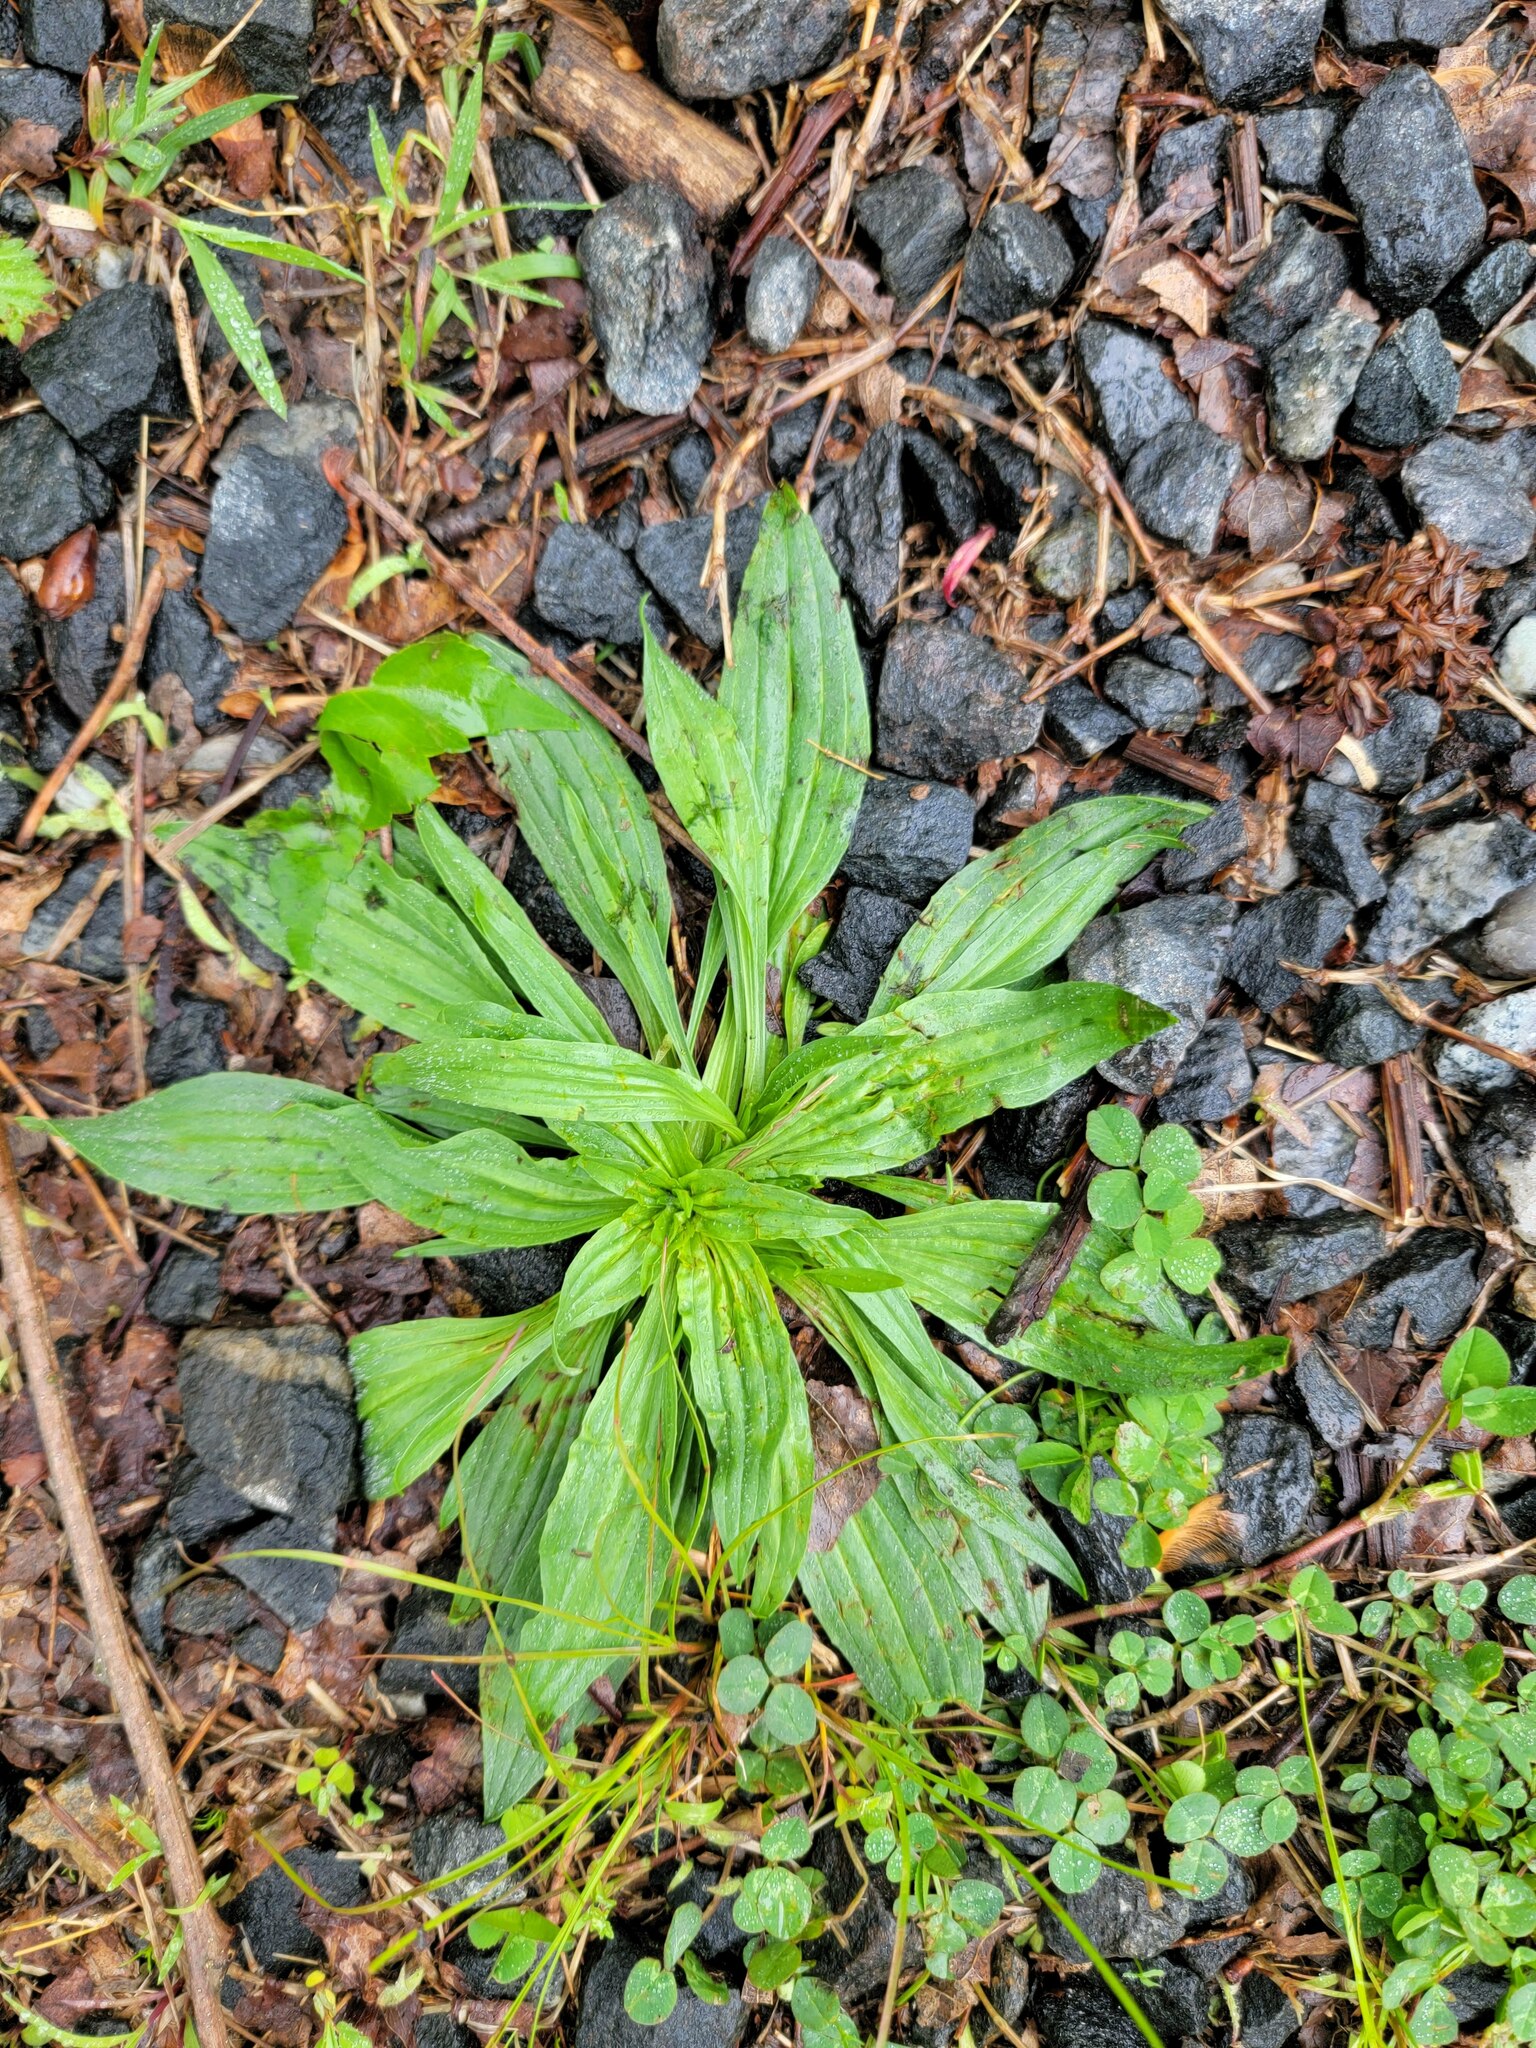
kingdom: Plantae
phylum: Tracheophyta
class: Magnoliopsida
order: Lamiales
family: Plantaginaceae
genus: Plantago
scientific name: Plantago lanceolata
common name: Ribwort plantain
